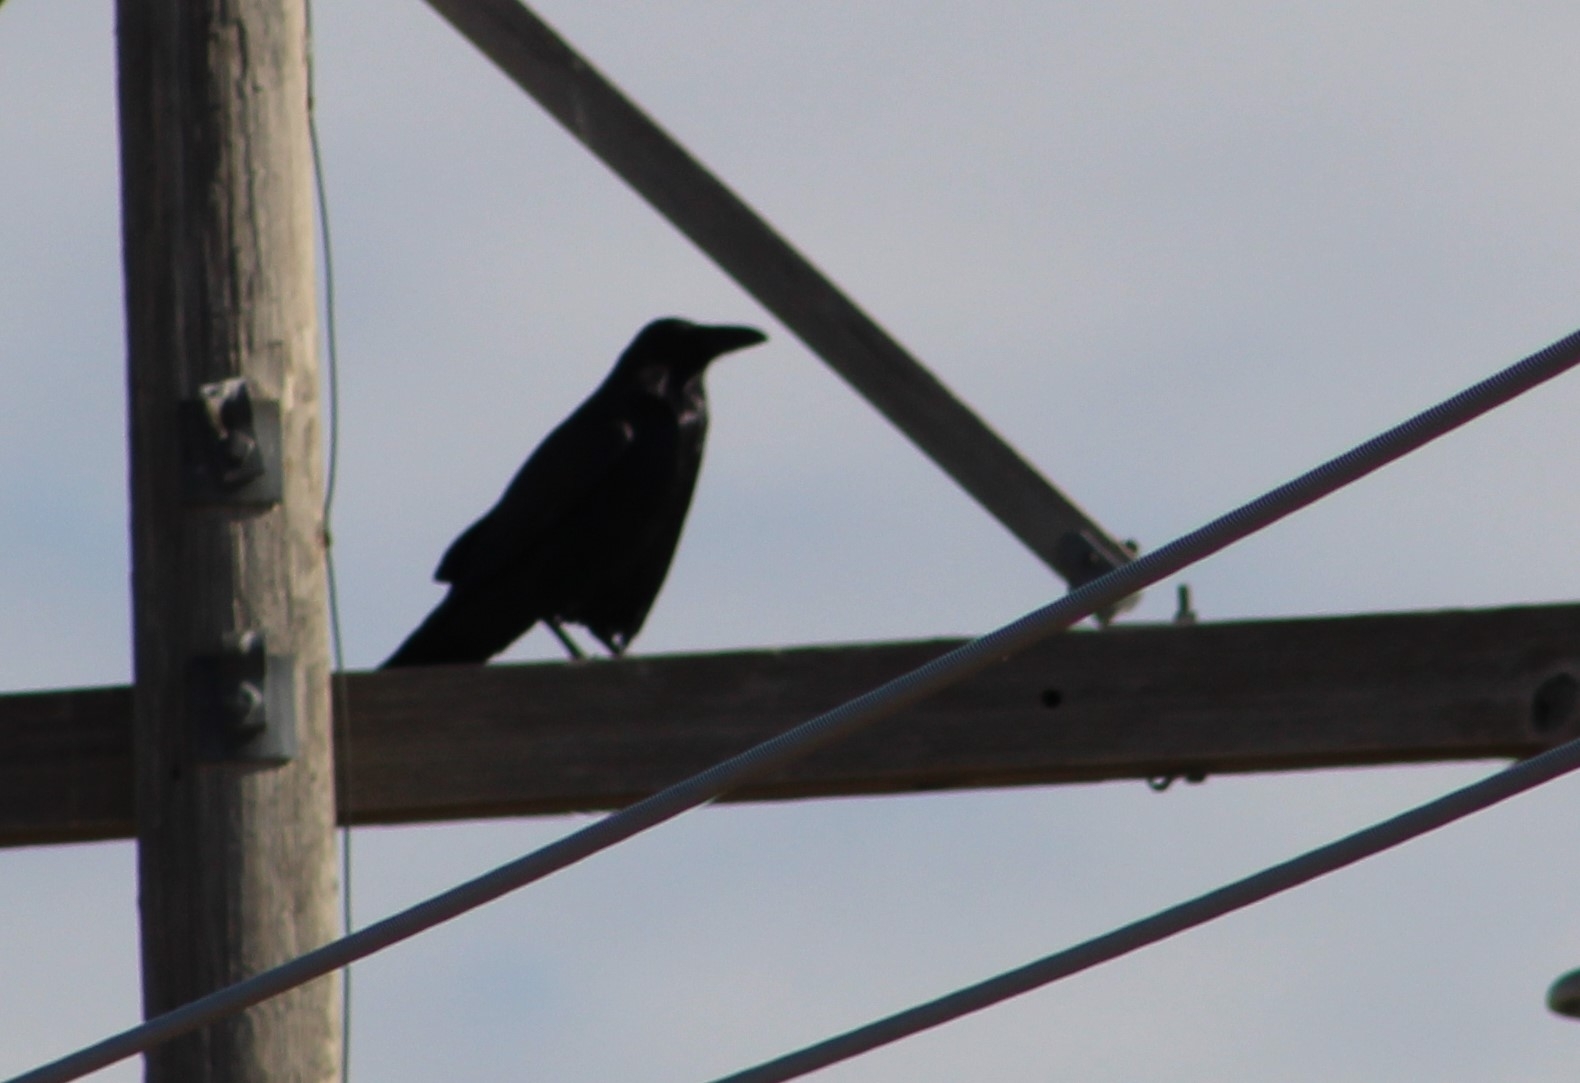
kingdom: Animalia
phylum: Chordata
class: Aves
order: Passeriformes
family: Corvidae
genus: Corvus
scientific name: Corvus corax
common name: Common raven
